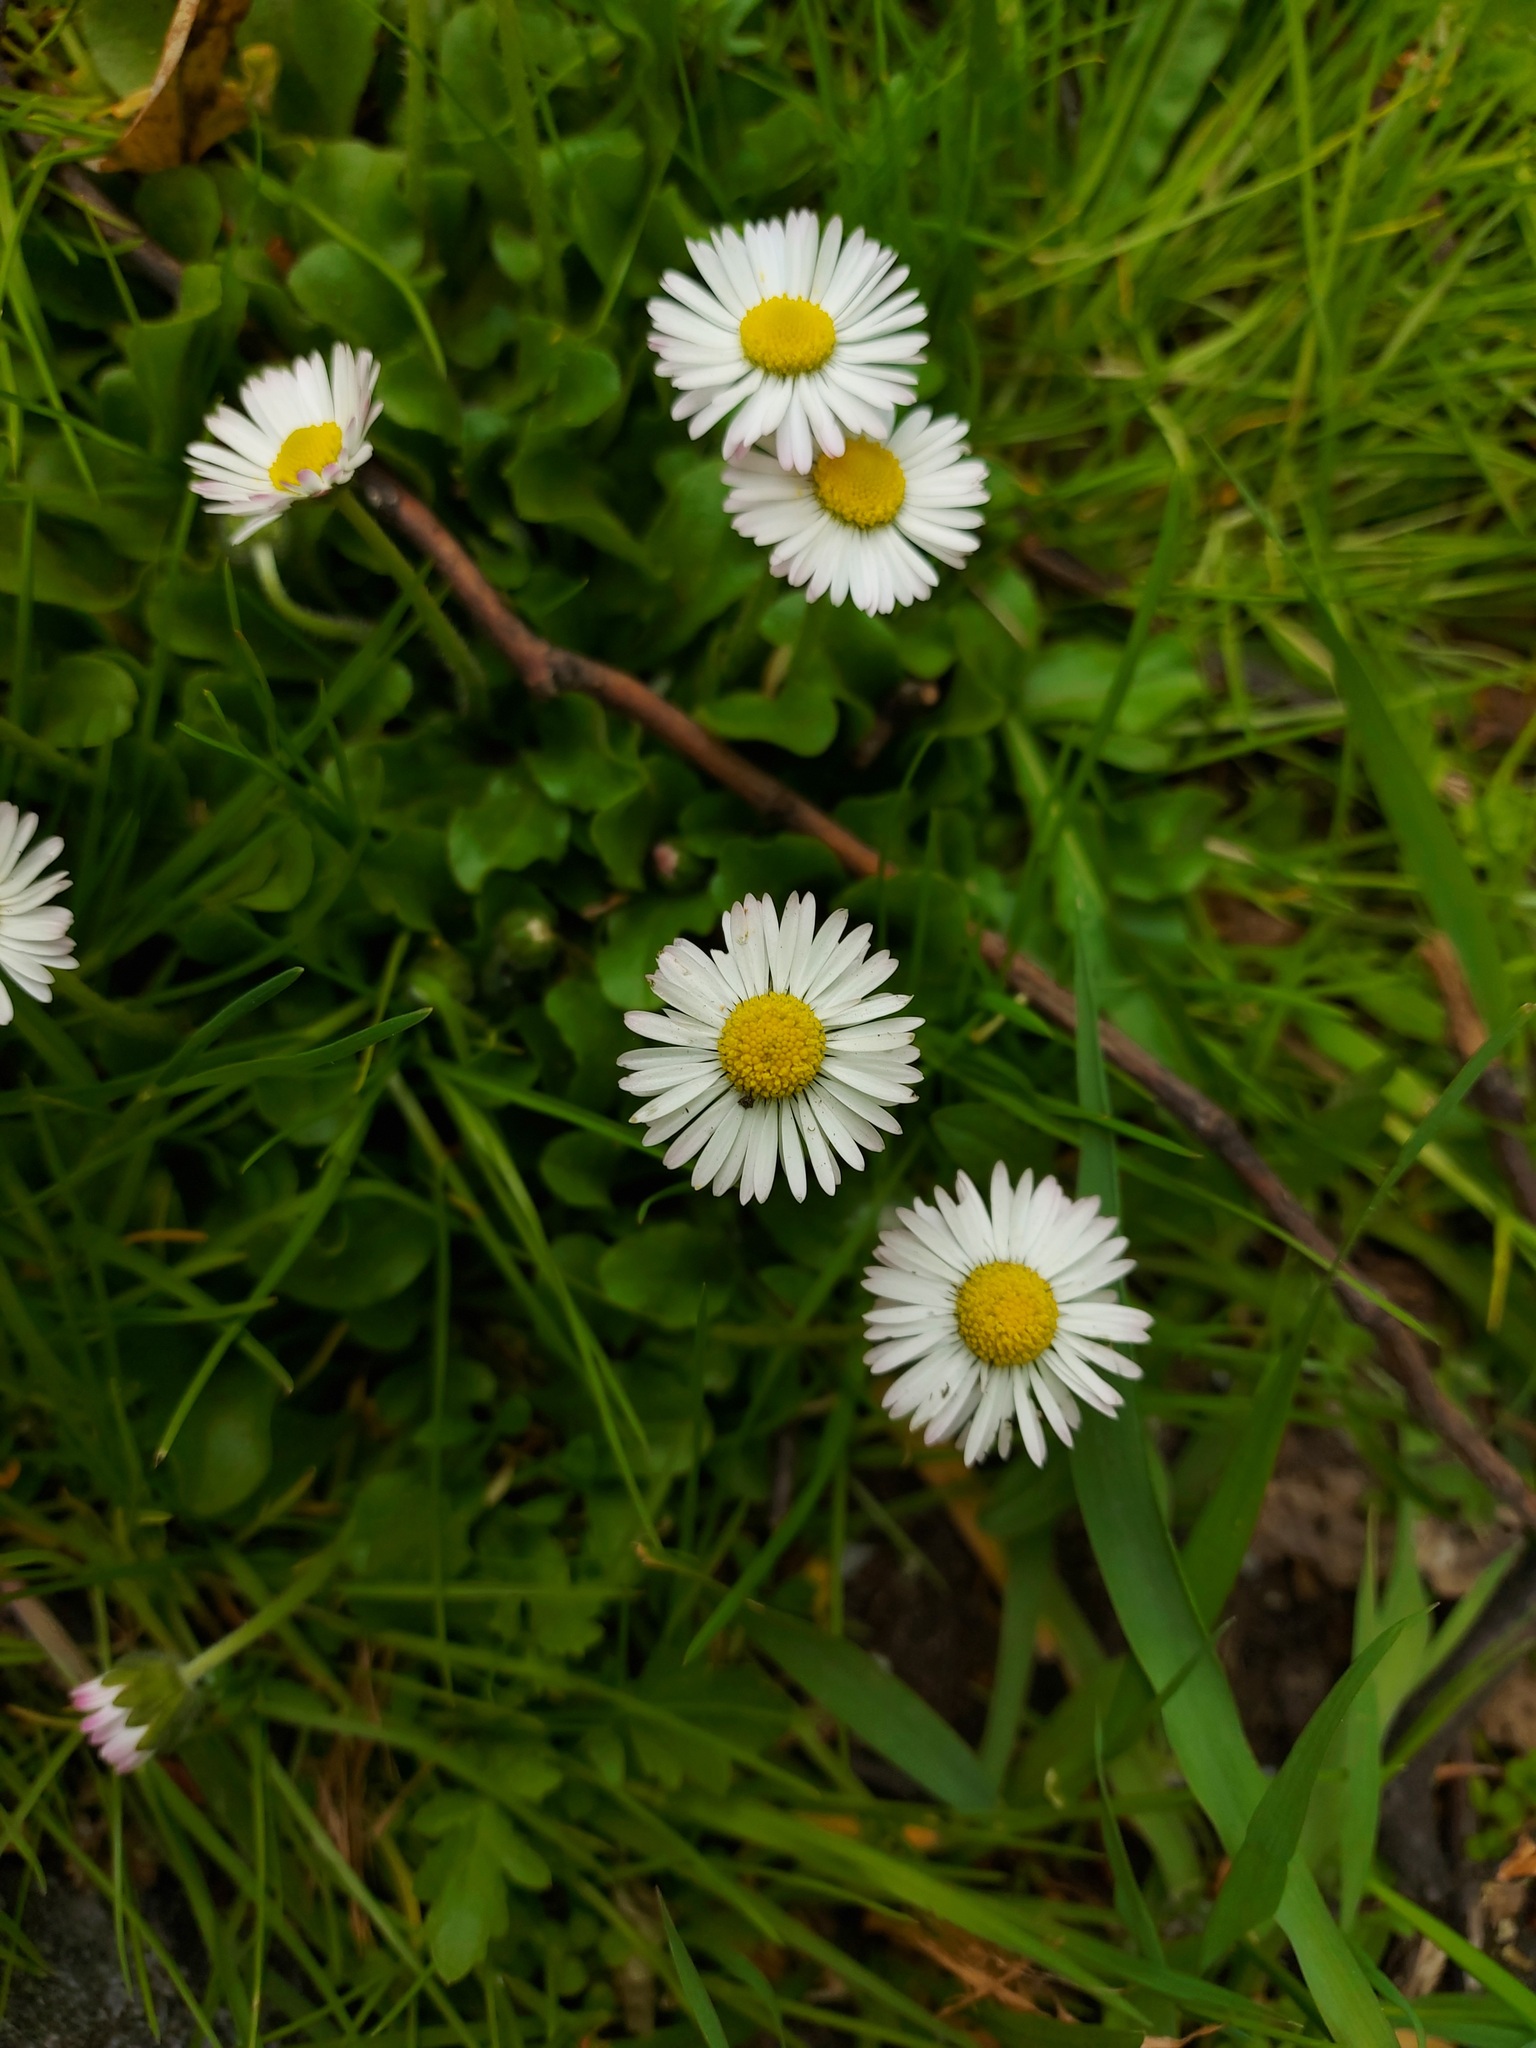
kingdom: Plantae
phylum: Tracheophyta
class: Magnoliopsida
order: Asterales
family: Asteraceae
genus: Bellis
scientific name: Bellis perennis
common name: Lawndaisy
